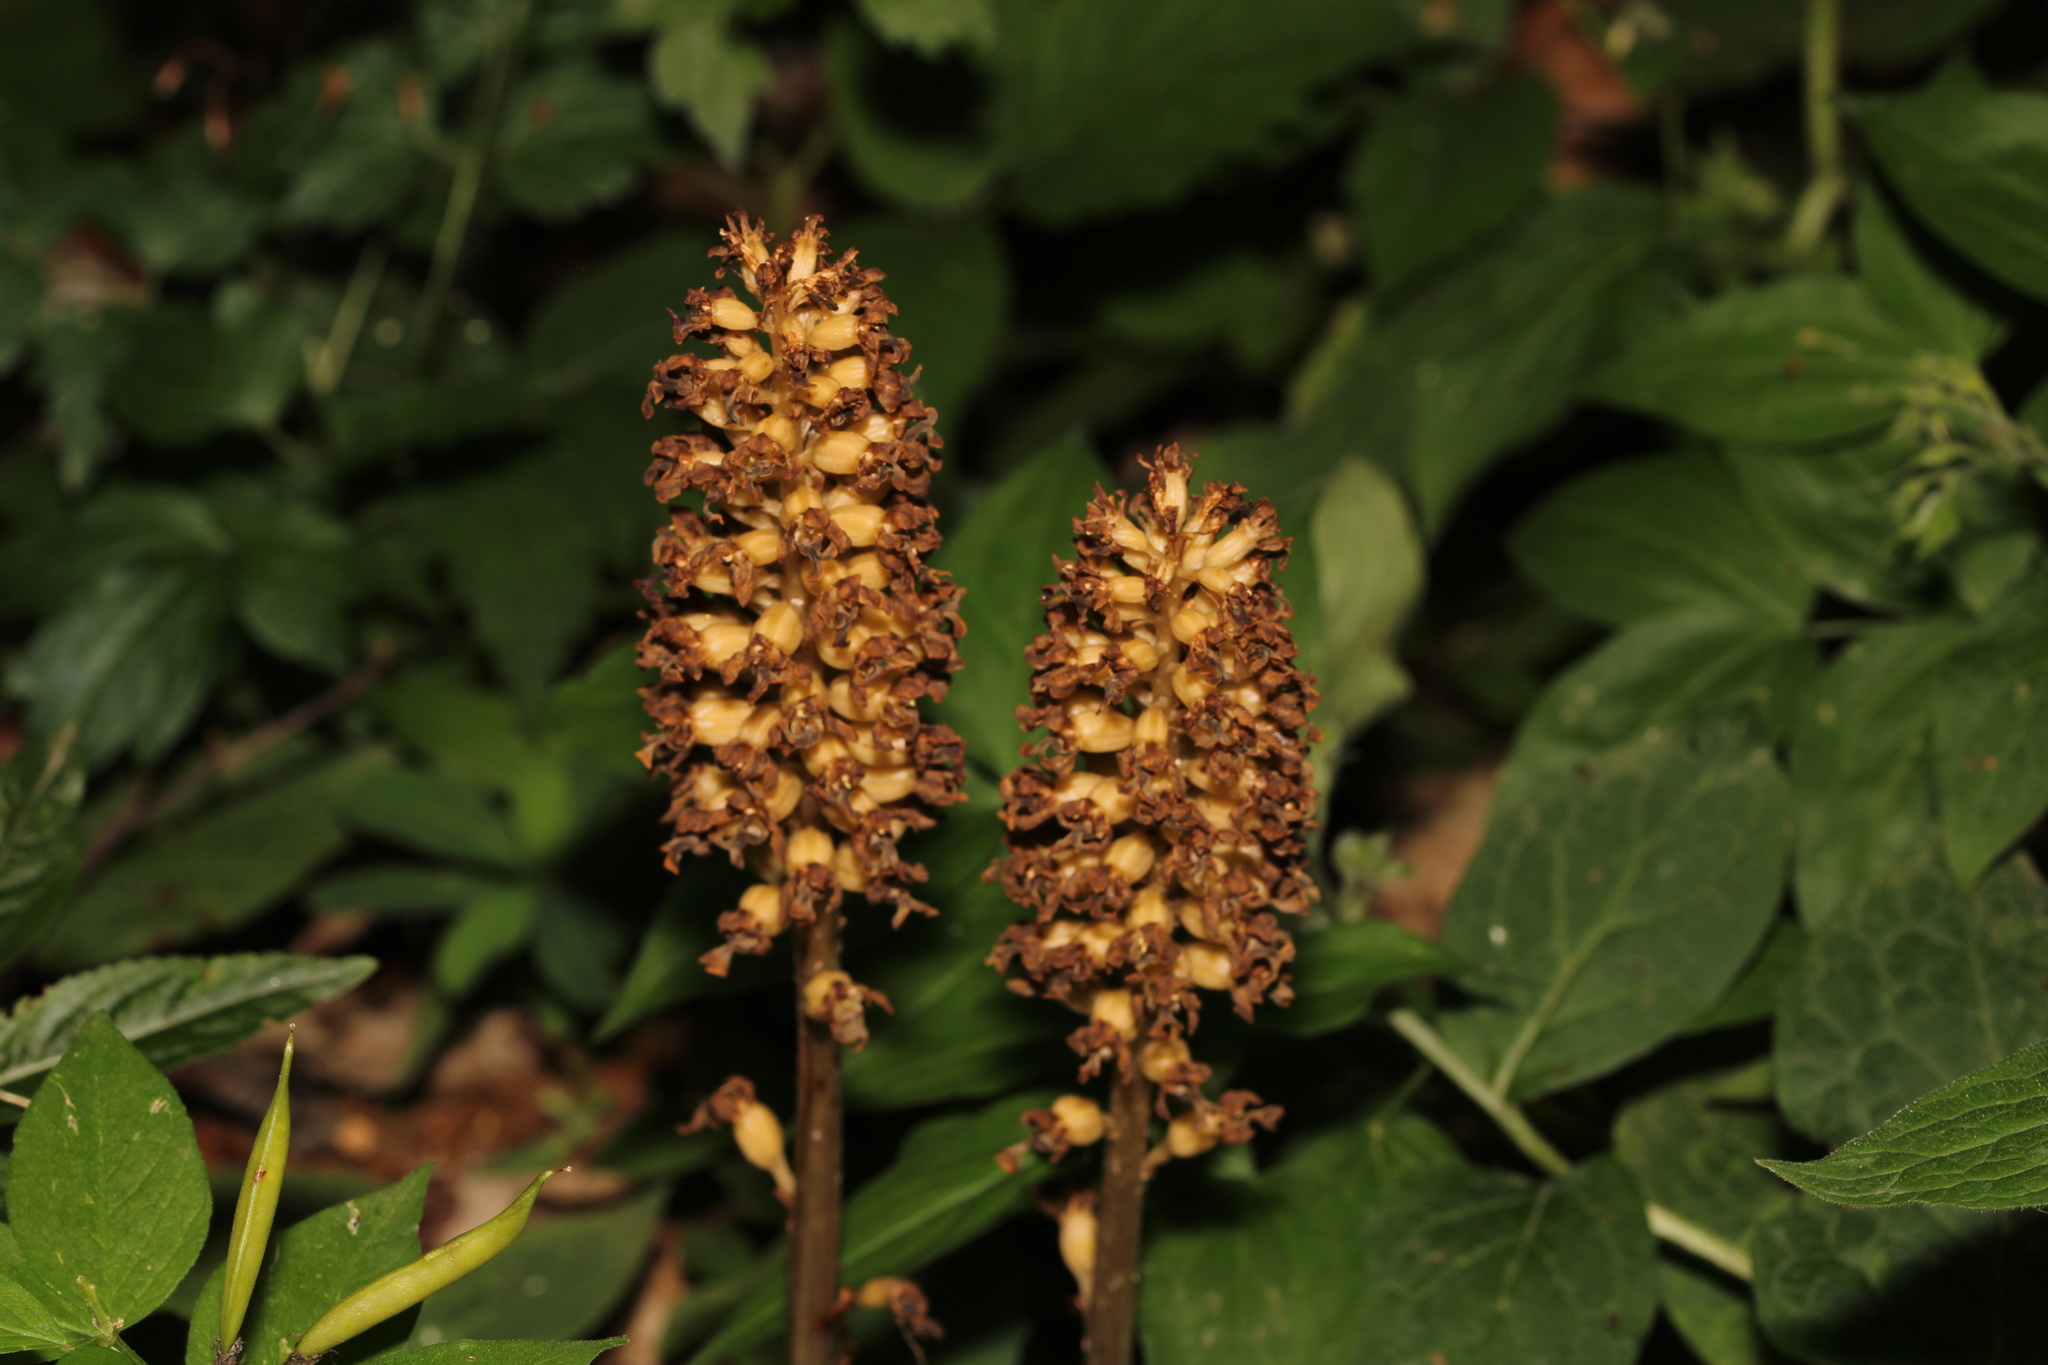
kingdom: Plantae
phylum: Tracheophyta
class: Liliopsida
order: Asparagales
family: Orchidaceae
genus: Neottia
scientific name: Neottia nidus-avis
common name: Bird's-nest orchid
